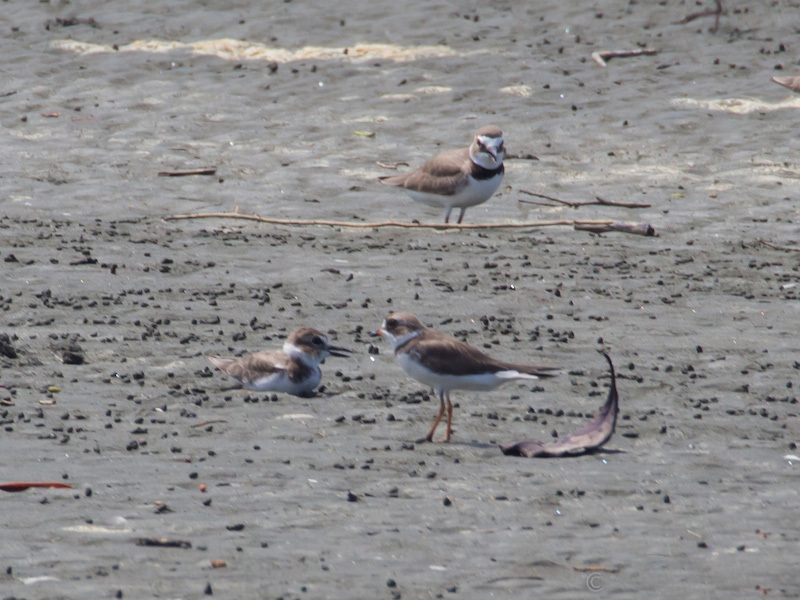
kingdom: Animalia
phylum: Chordata
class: Aves
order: Charadriiformes
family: Charadriidae
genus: Charadrius
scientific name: Charadrius semipalmatus
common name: Semipalmated plover
